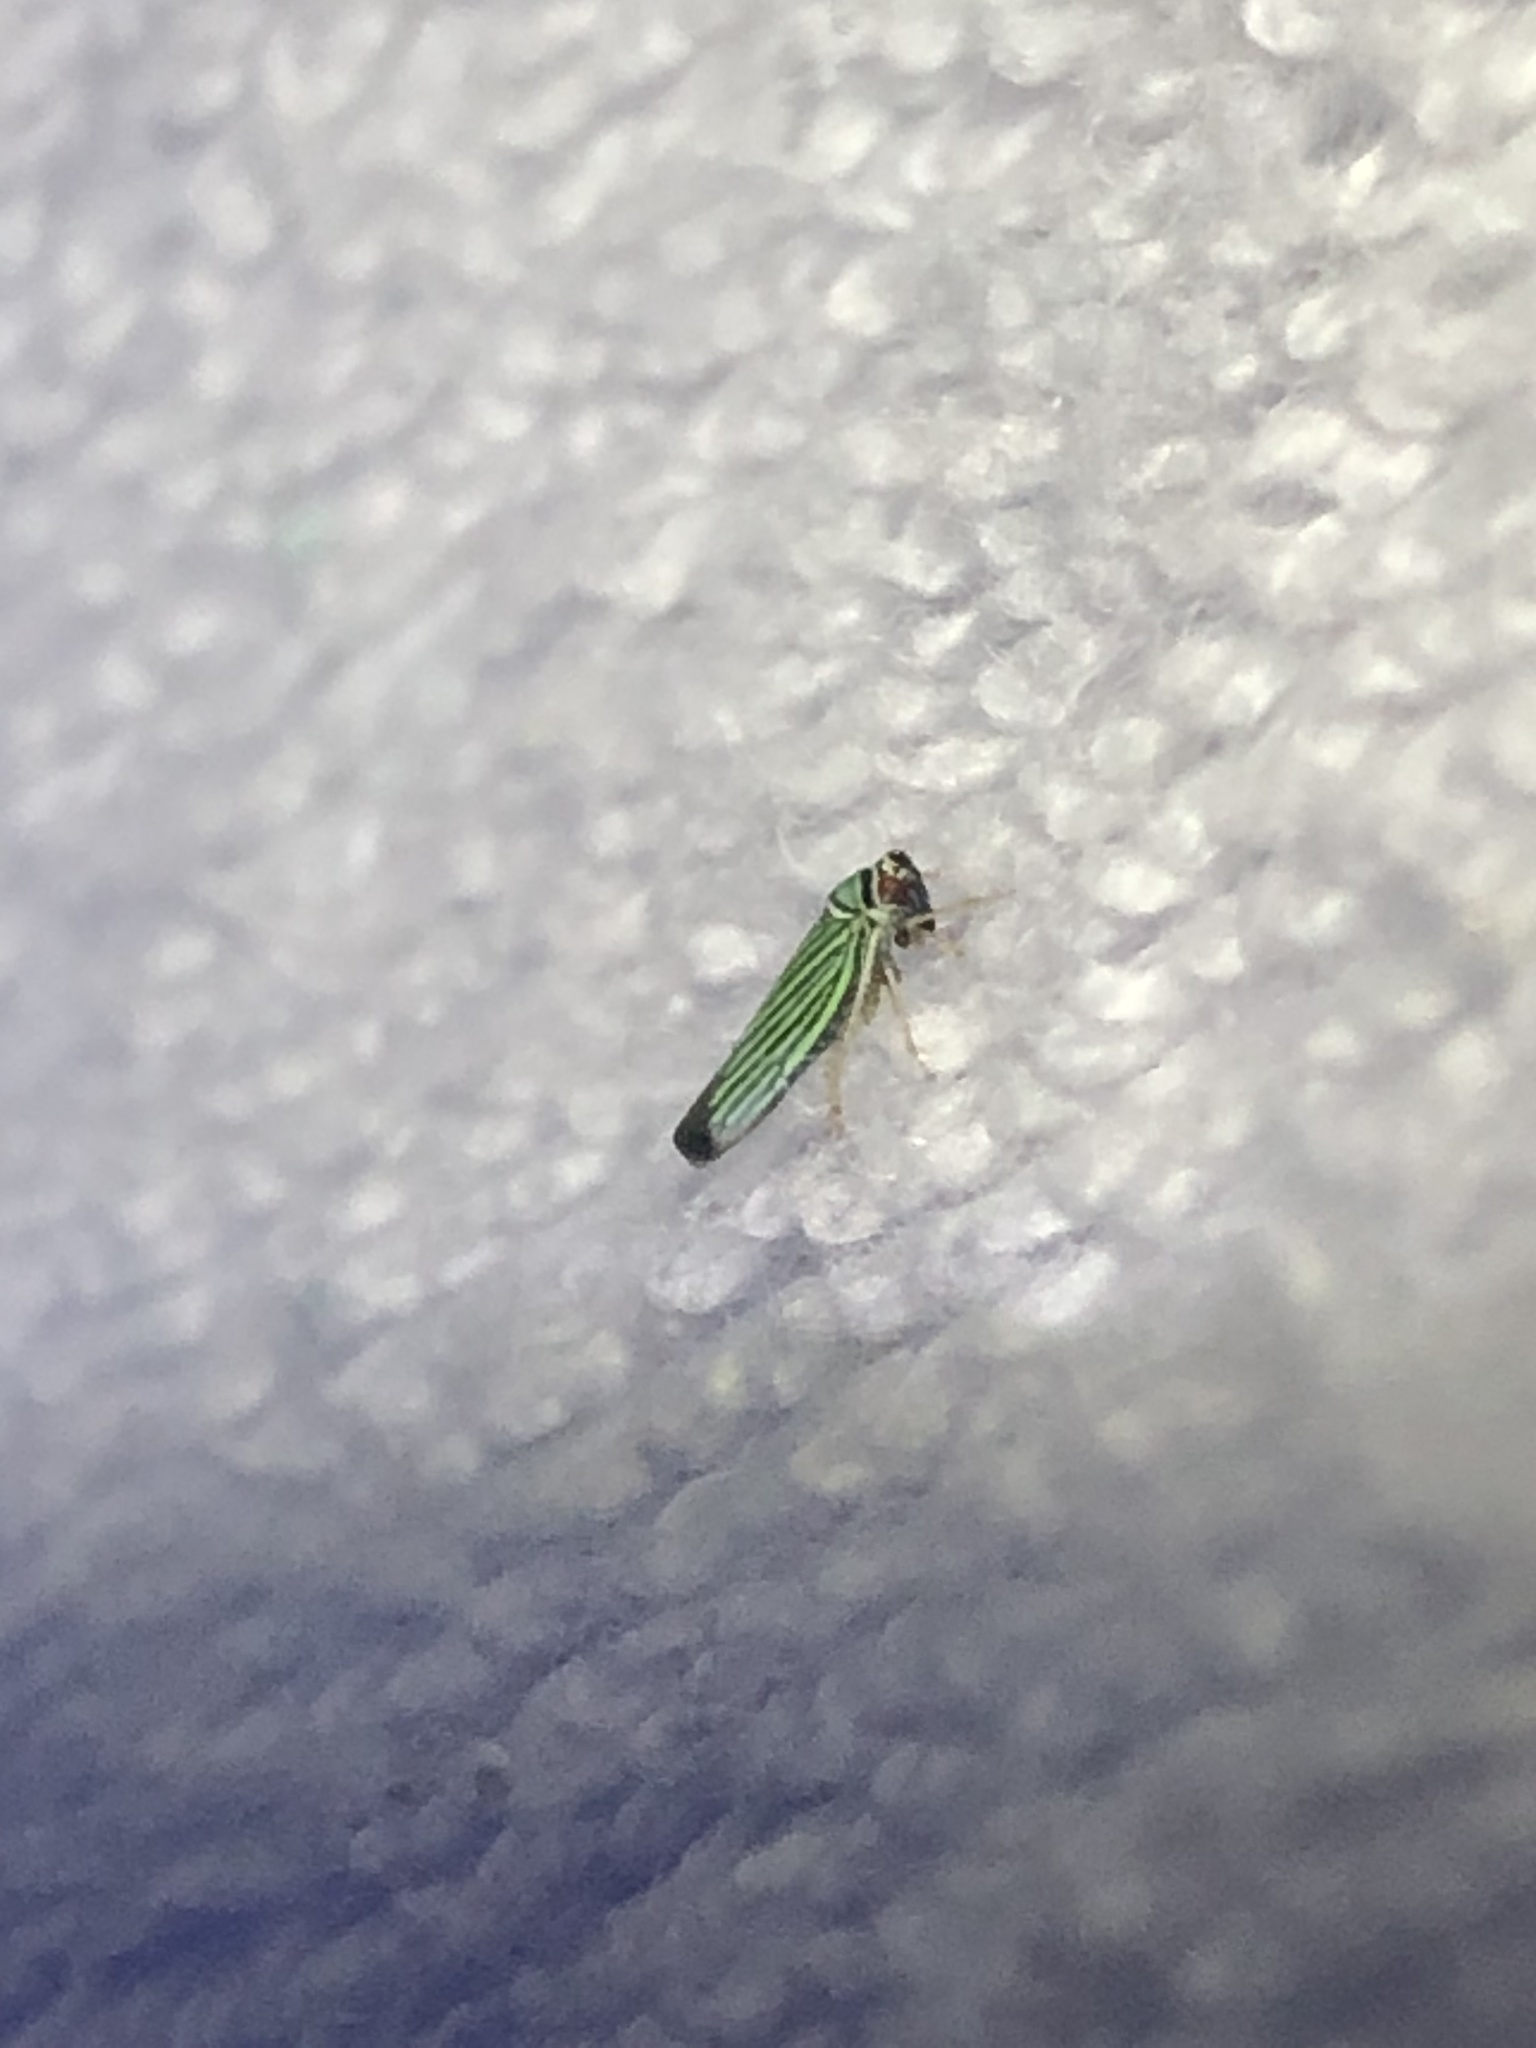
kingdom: Animalia
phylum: Arthropoda
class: Insecta
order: Hemiptera
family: Cicadellidae
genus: Tylozygus
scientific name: Tylozygus bifidus
